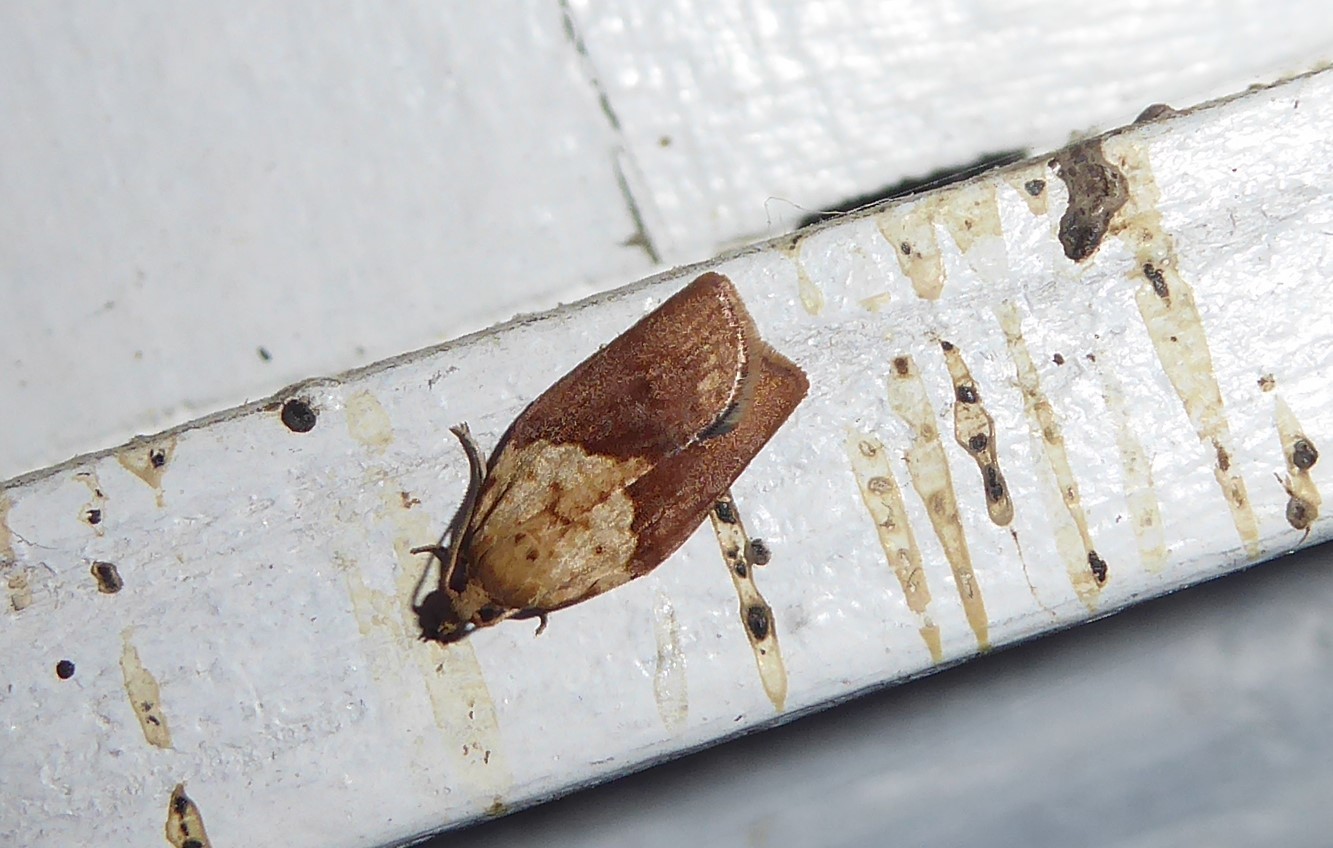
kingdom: Animalia
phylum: Arthropoda
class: Insecta
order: Lepidoptera
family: Tortricidae
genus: Epiphyas
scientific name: Epiphyas postvittana
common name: Light brown apple moth
